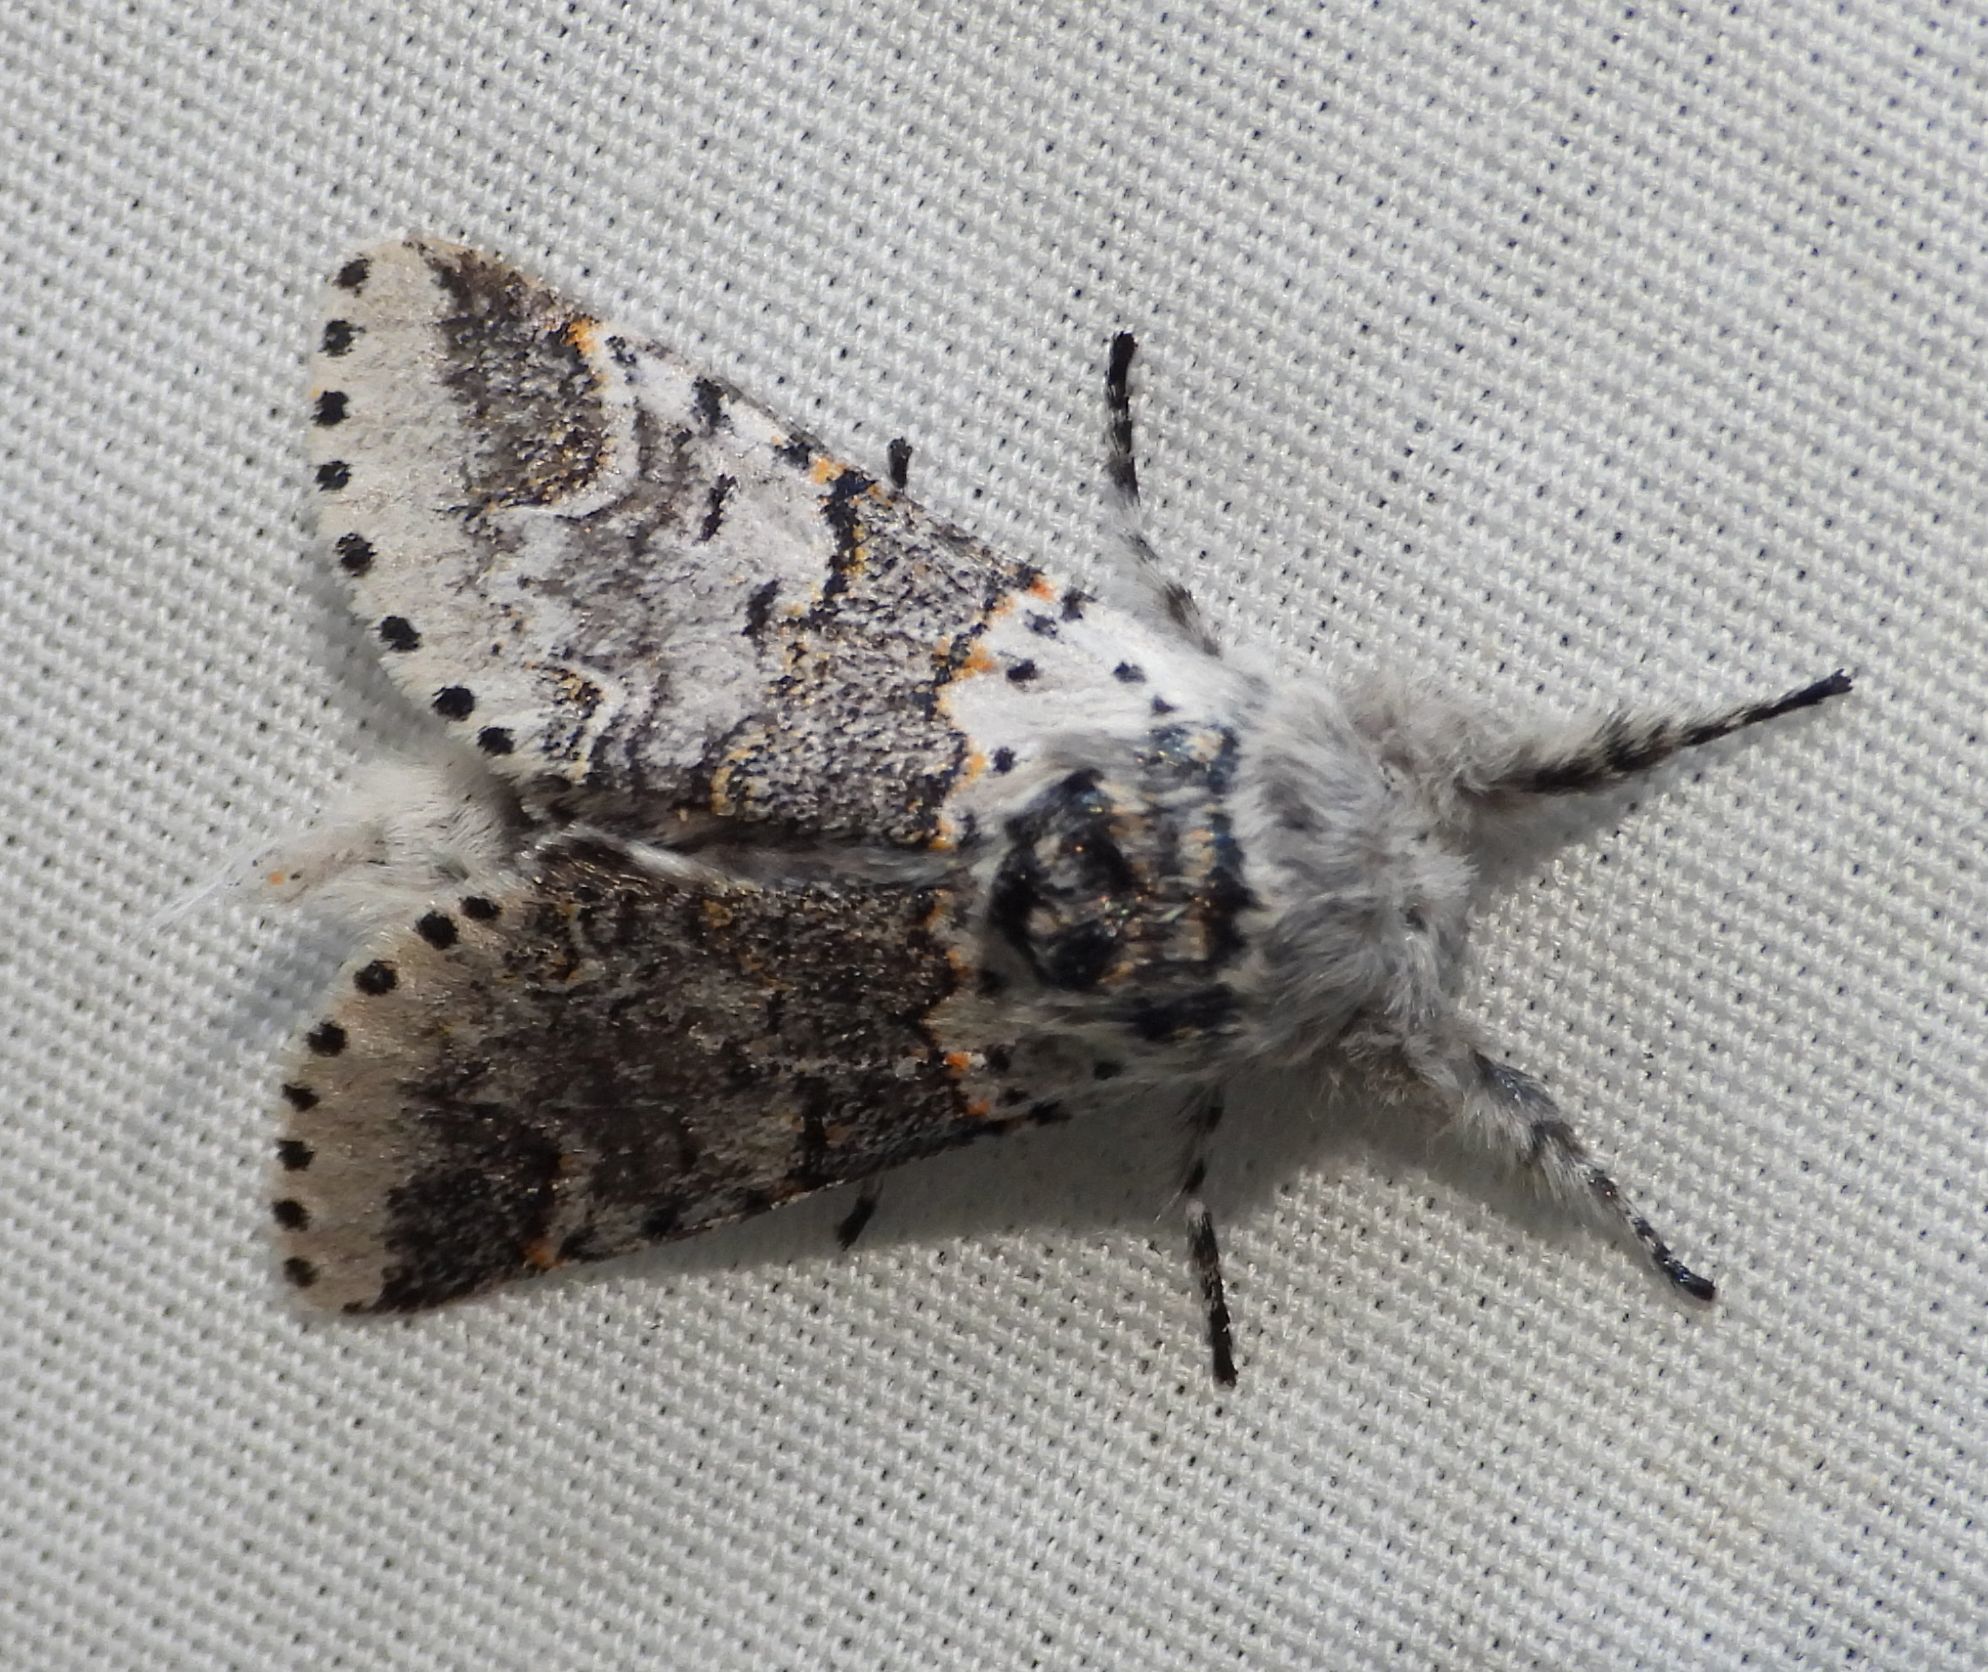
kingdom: Animalia
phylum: Arthropoda
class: Insecta
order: Lepidoptera
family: Notodontidae
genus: Furcula
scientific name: Furcula occidentalis
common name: Western furcula moth
